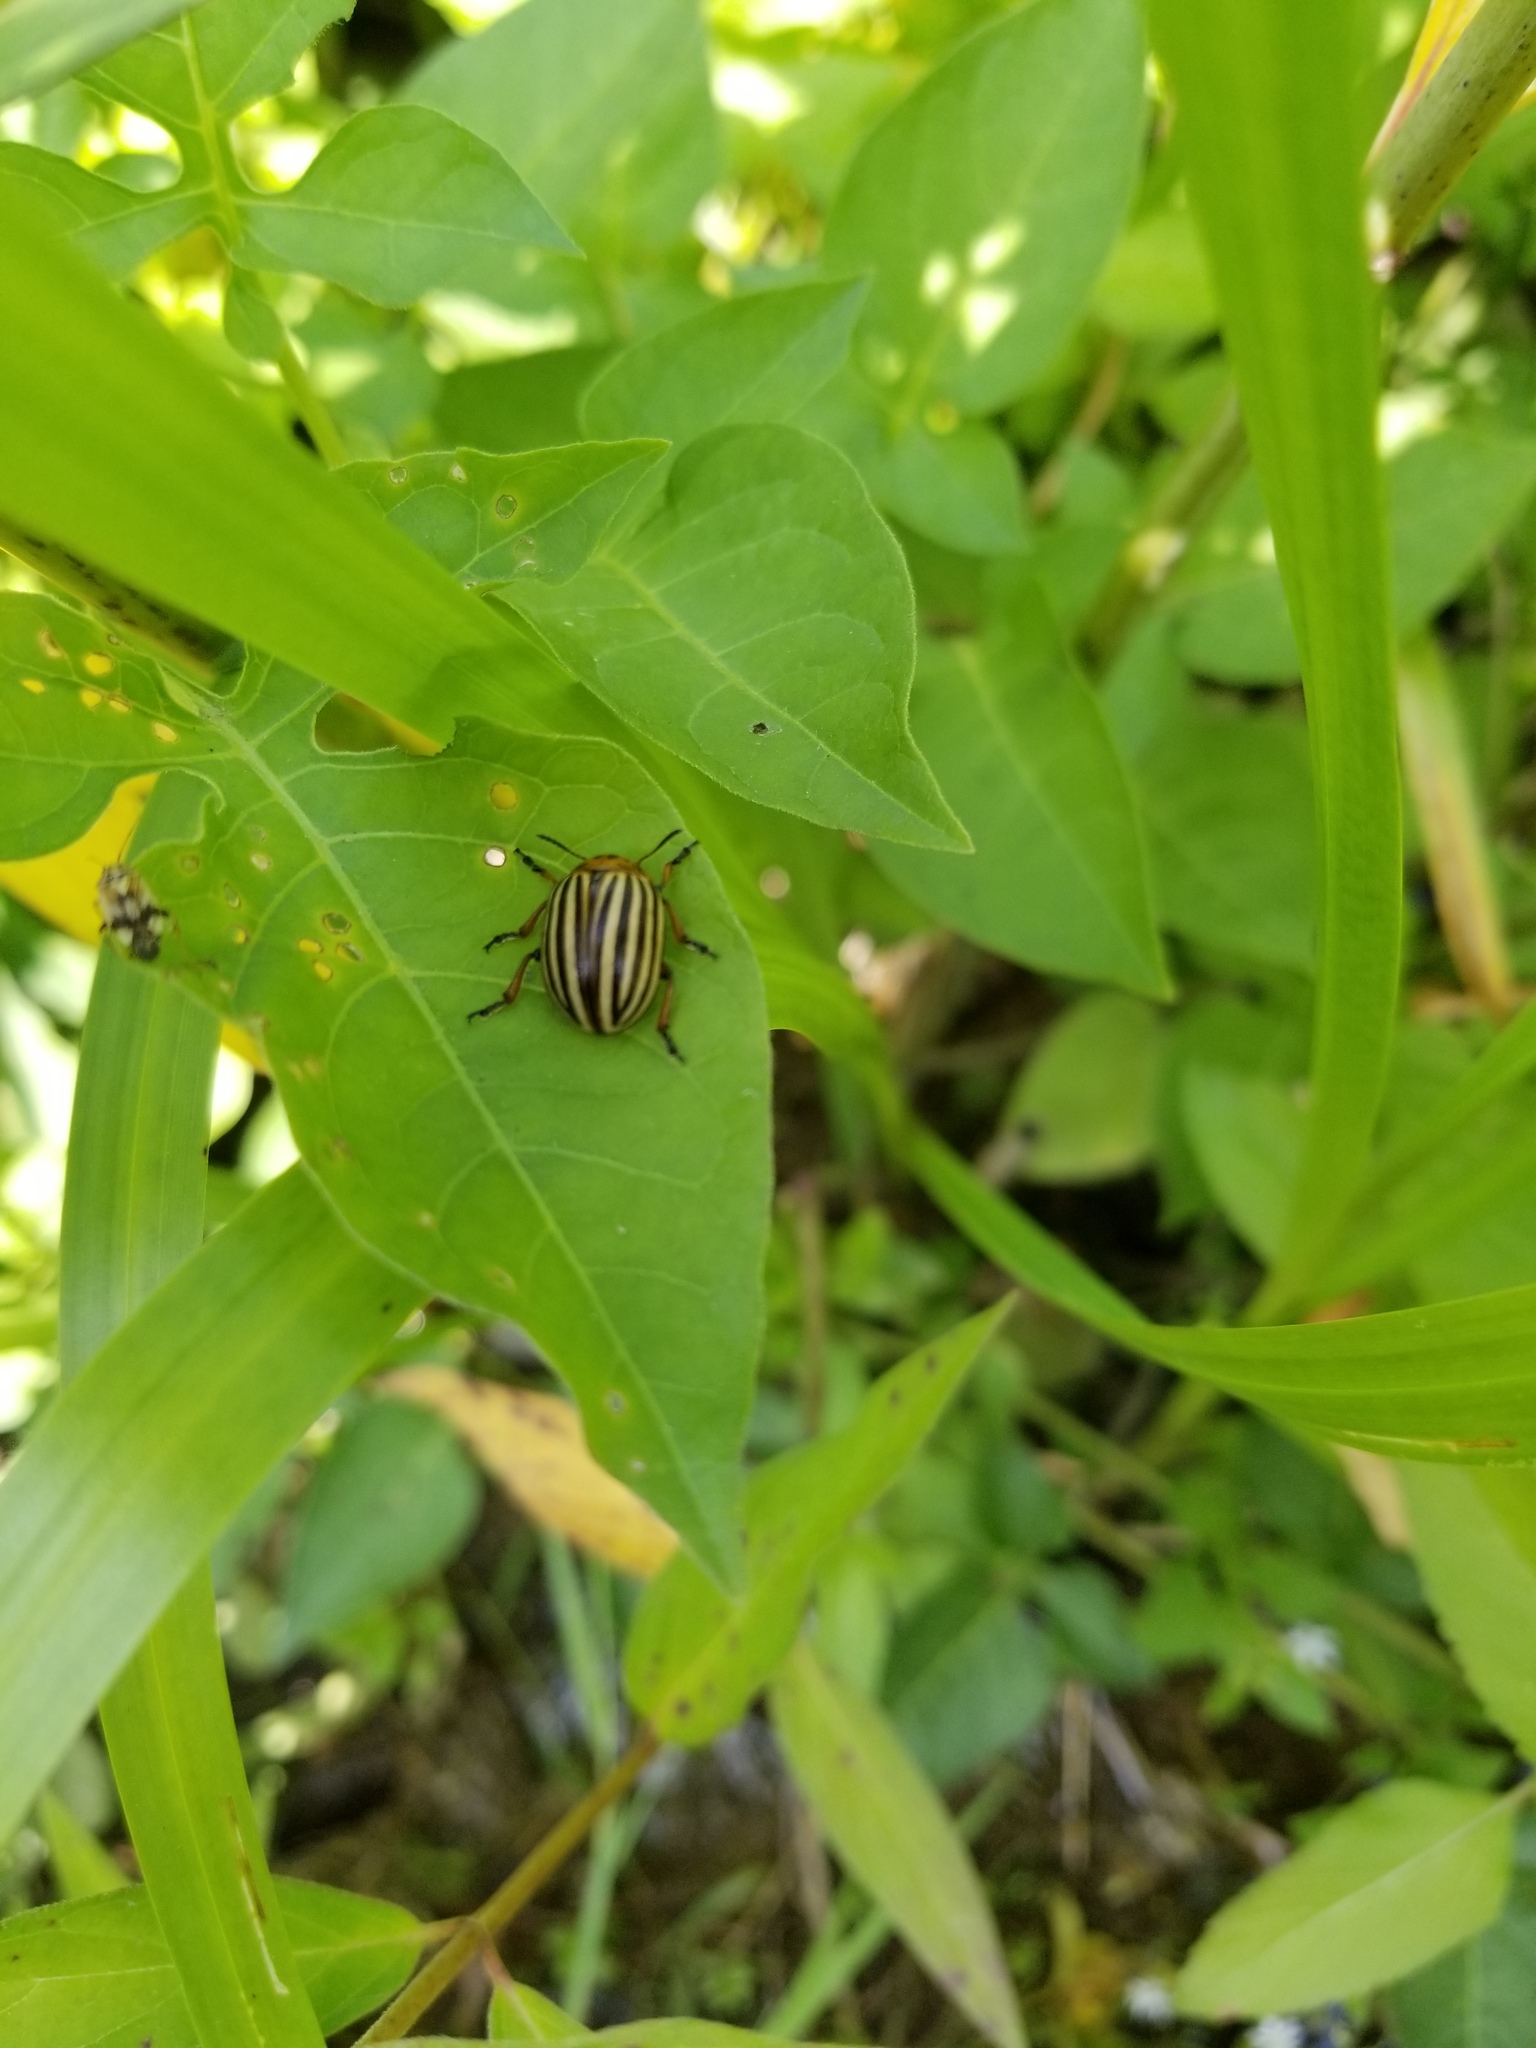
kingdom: Animalia
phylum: Arthropoda
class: Insecta
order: Coleoptera
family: Chrysomelidae
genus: Leptinotarsa
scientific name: Leptinotarsa decemlineata
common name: Colorado potato beetle
